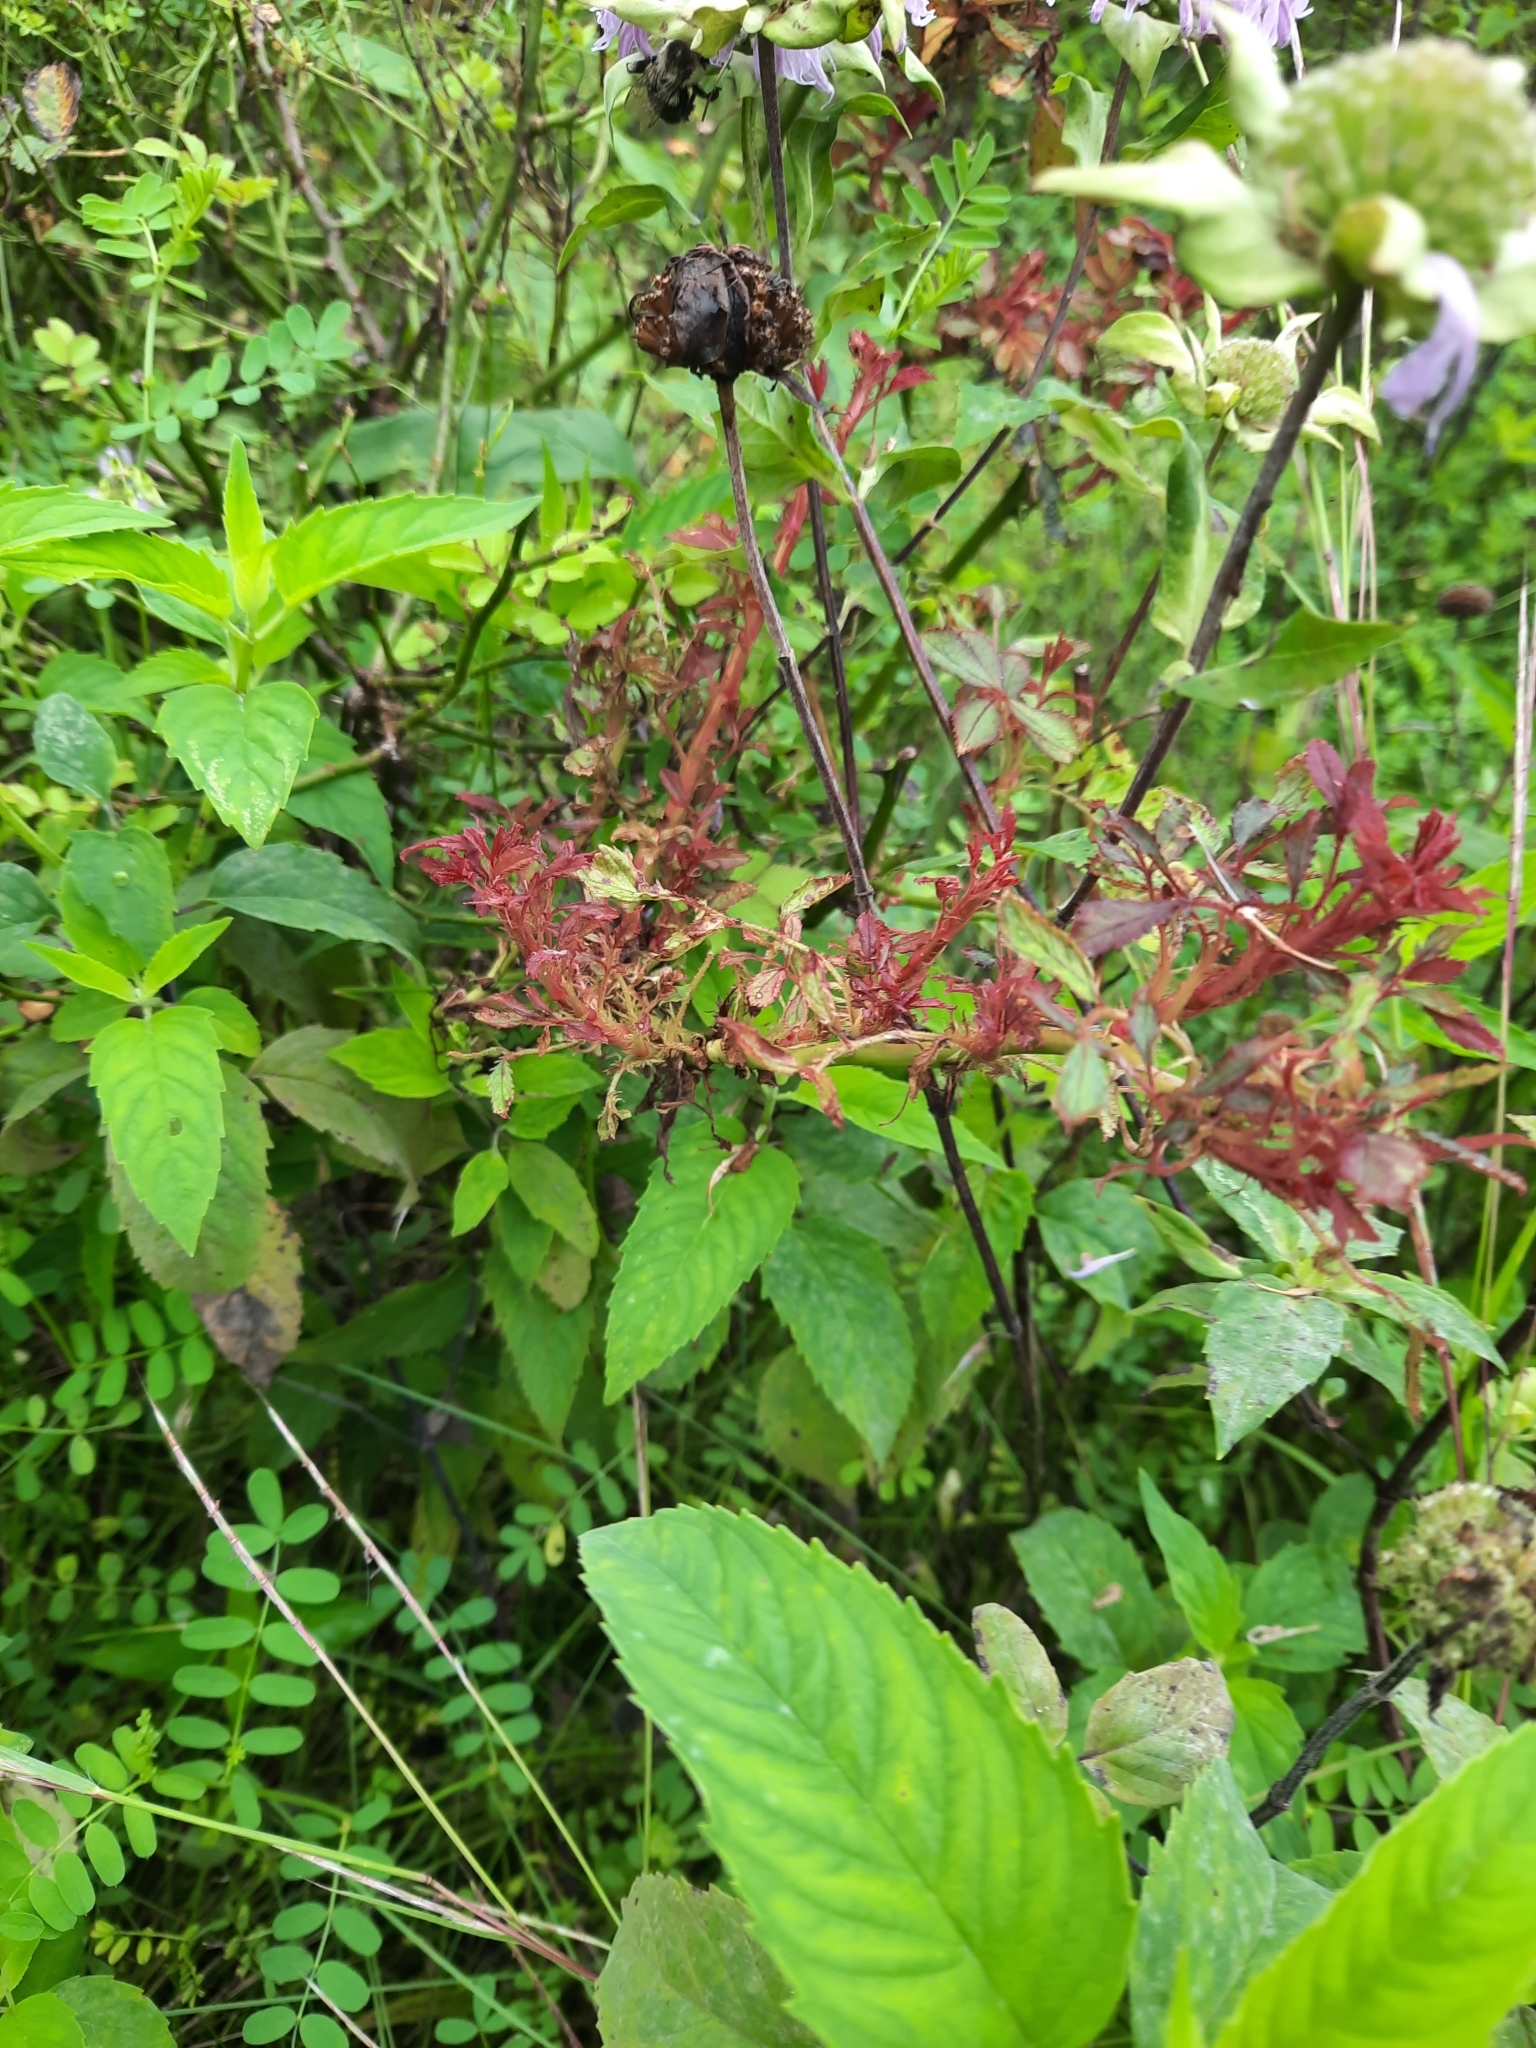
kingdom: Viruses
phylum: Negarnaviricota
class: Ellioviricetes
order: Bunyavirales
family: Fimoviridae
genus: Emaravirus
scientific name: Emaravirus rosae
